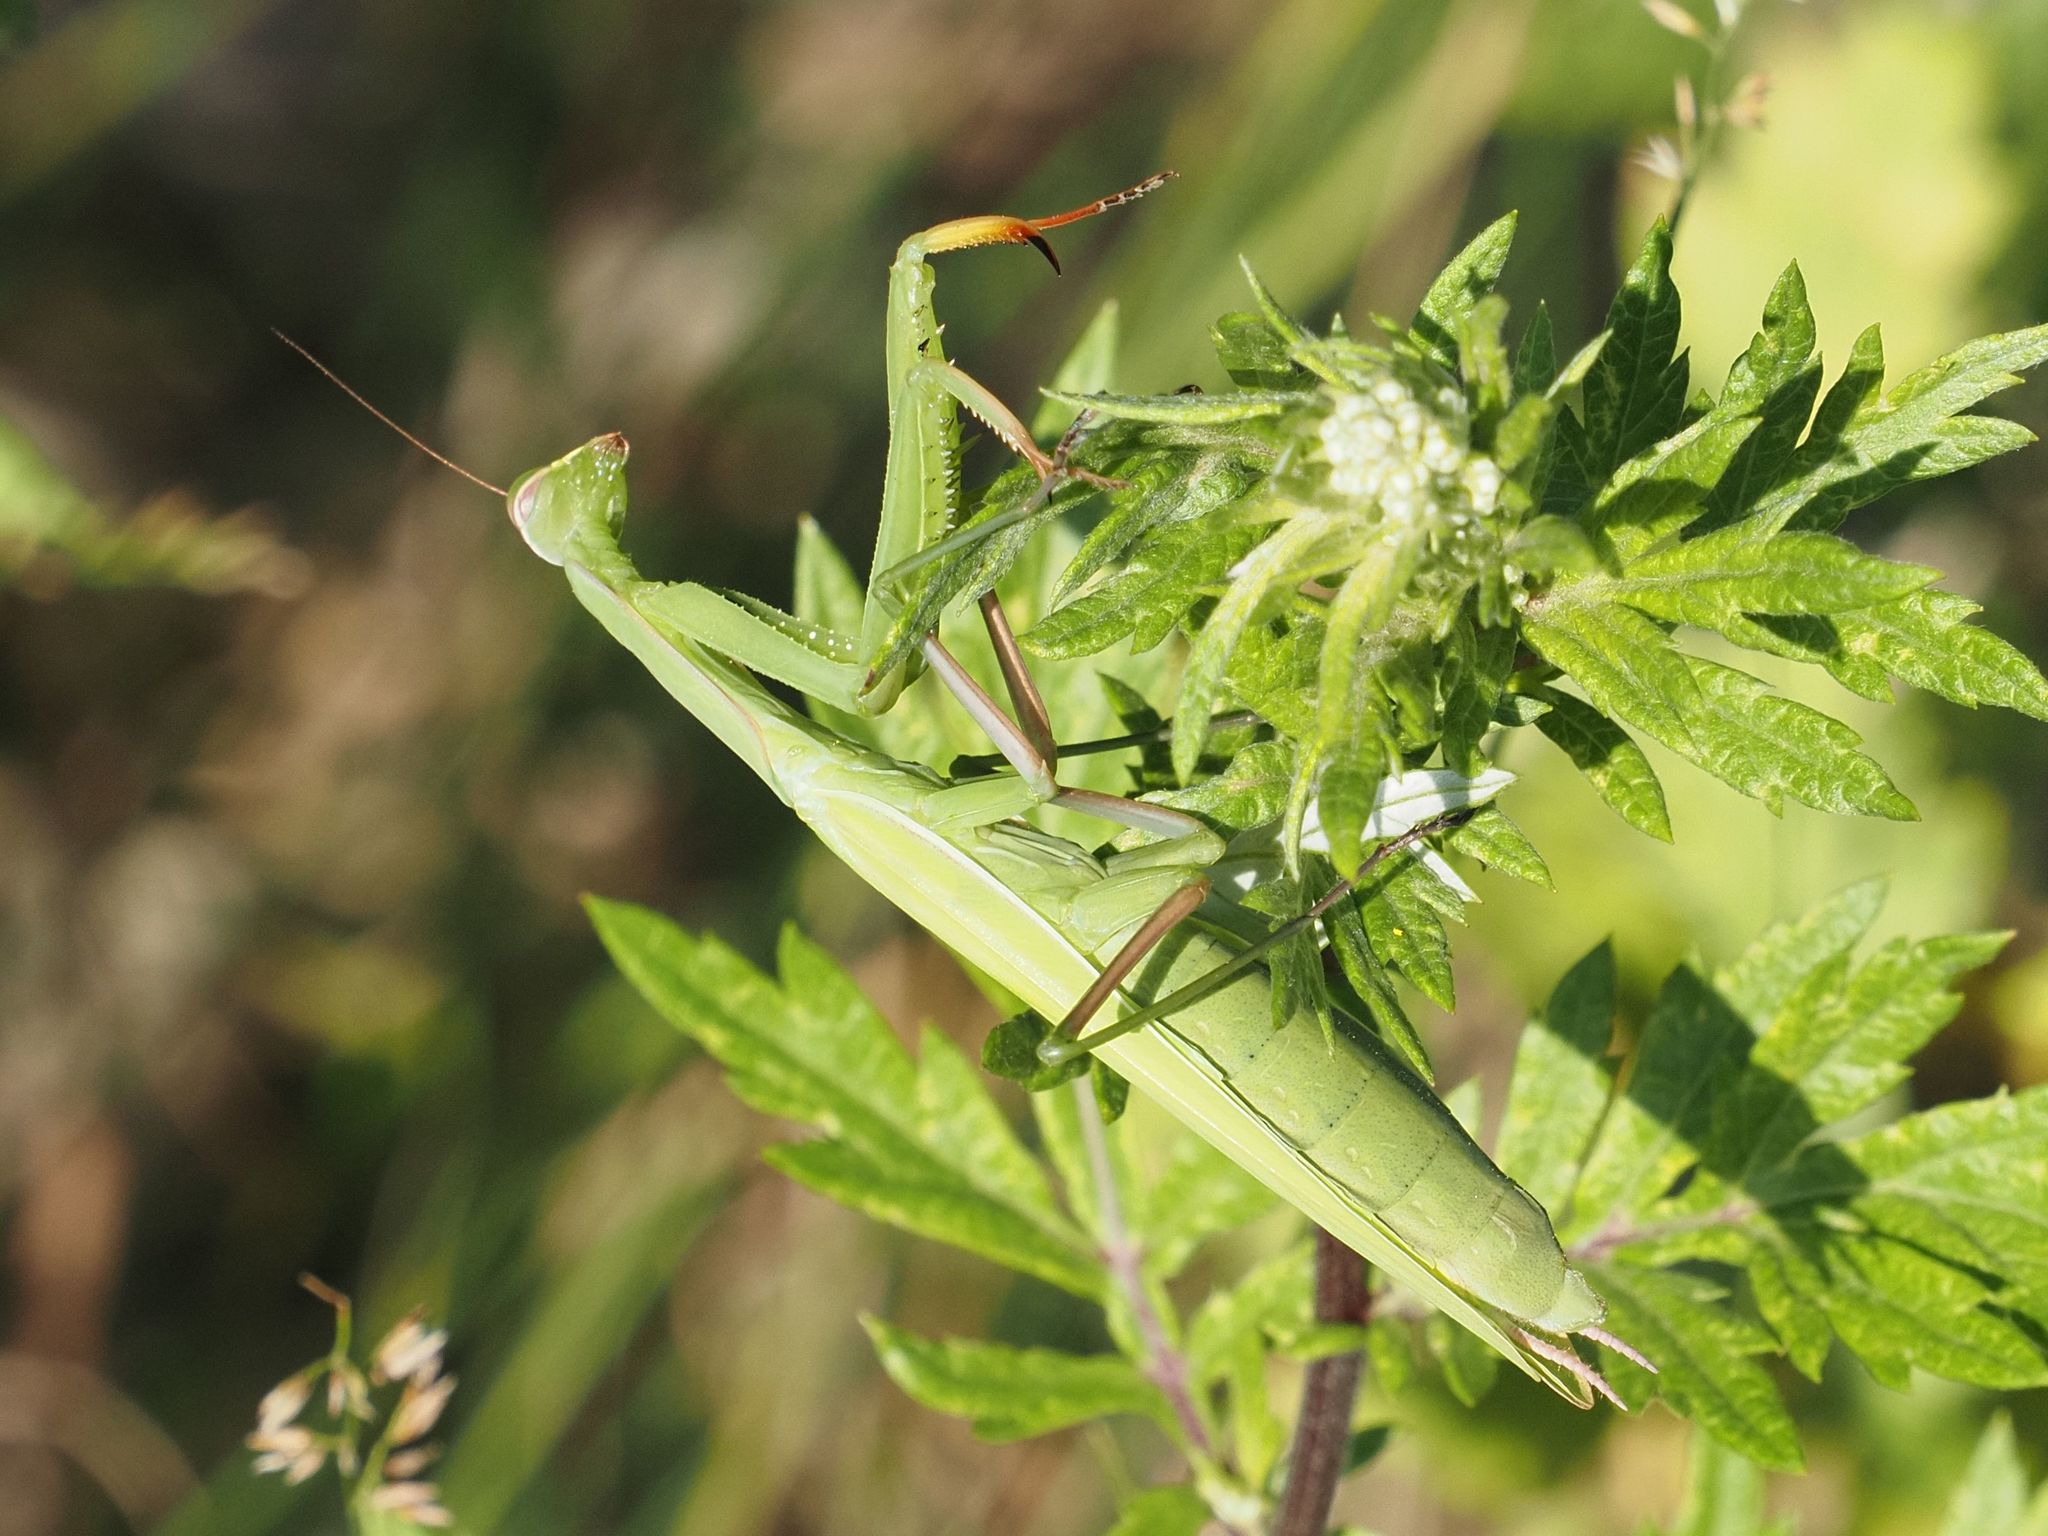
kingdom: Animalia
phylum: Arthropoda
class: Insecta
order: Mantodea
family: Mantidae
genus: Mantis
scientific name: Mantis religiosa
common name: Praying mantis
